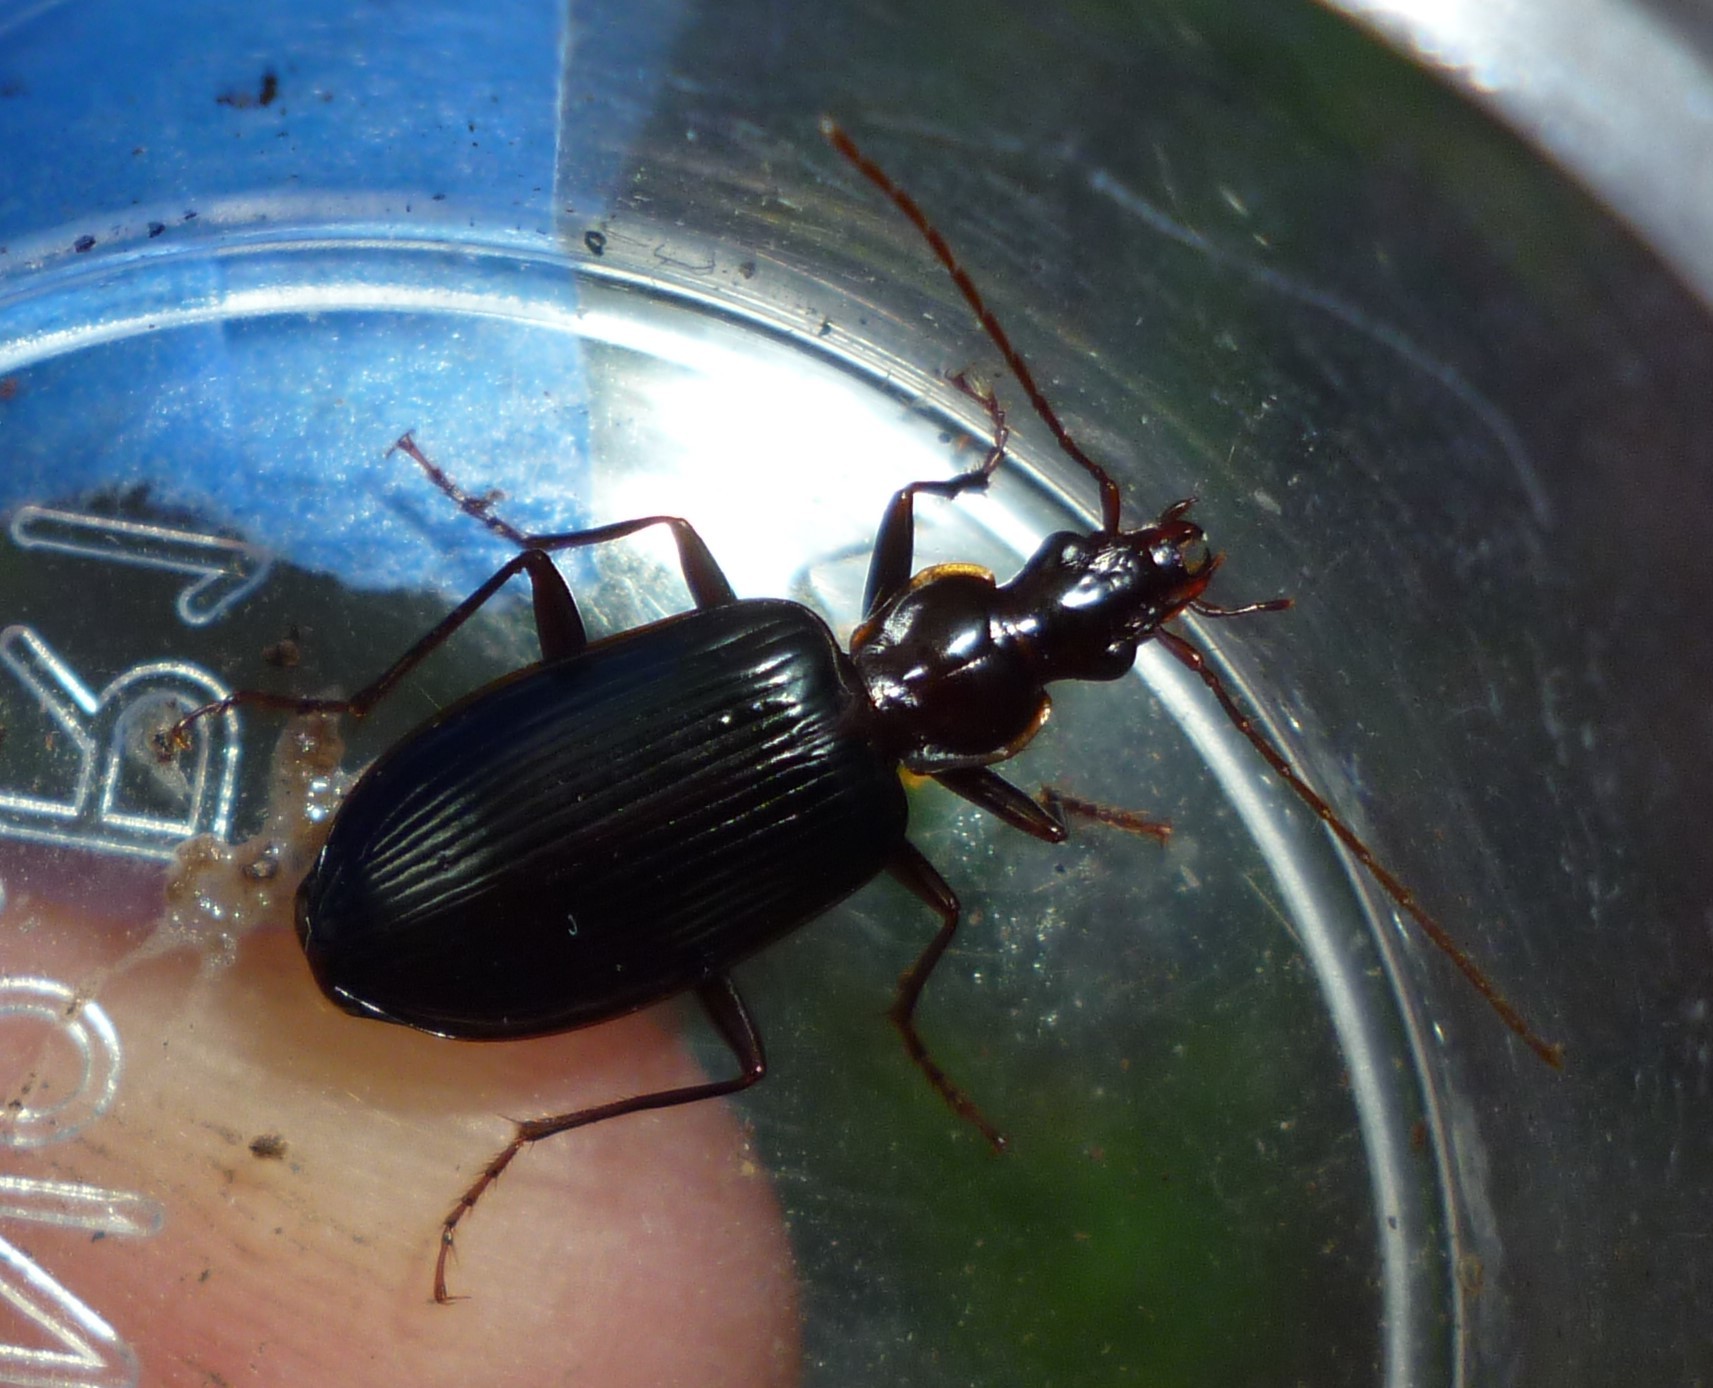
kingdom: Animalia
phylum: Arthropoda
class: Insecta
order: Coleoptera
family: Carabidae
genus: Platynus
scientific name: Platynus tenuicollis
